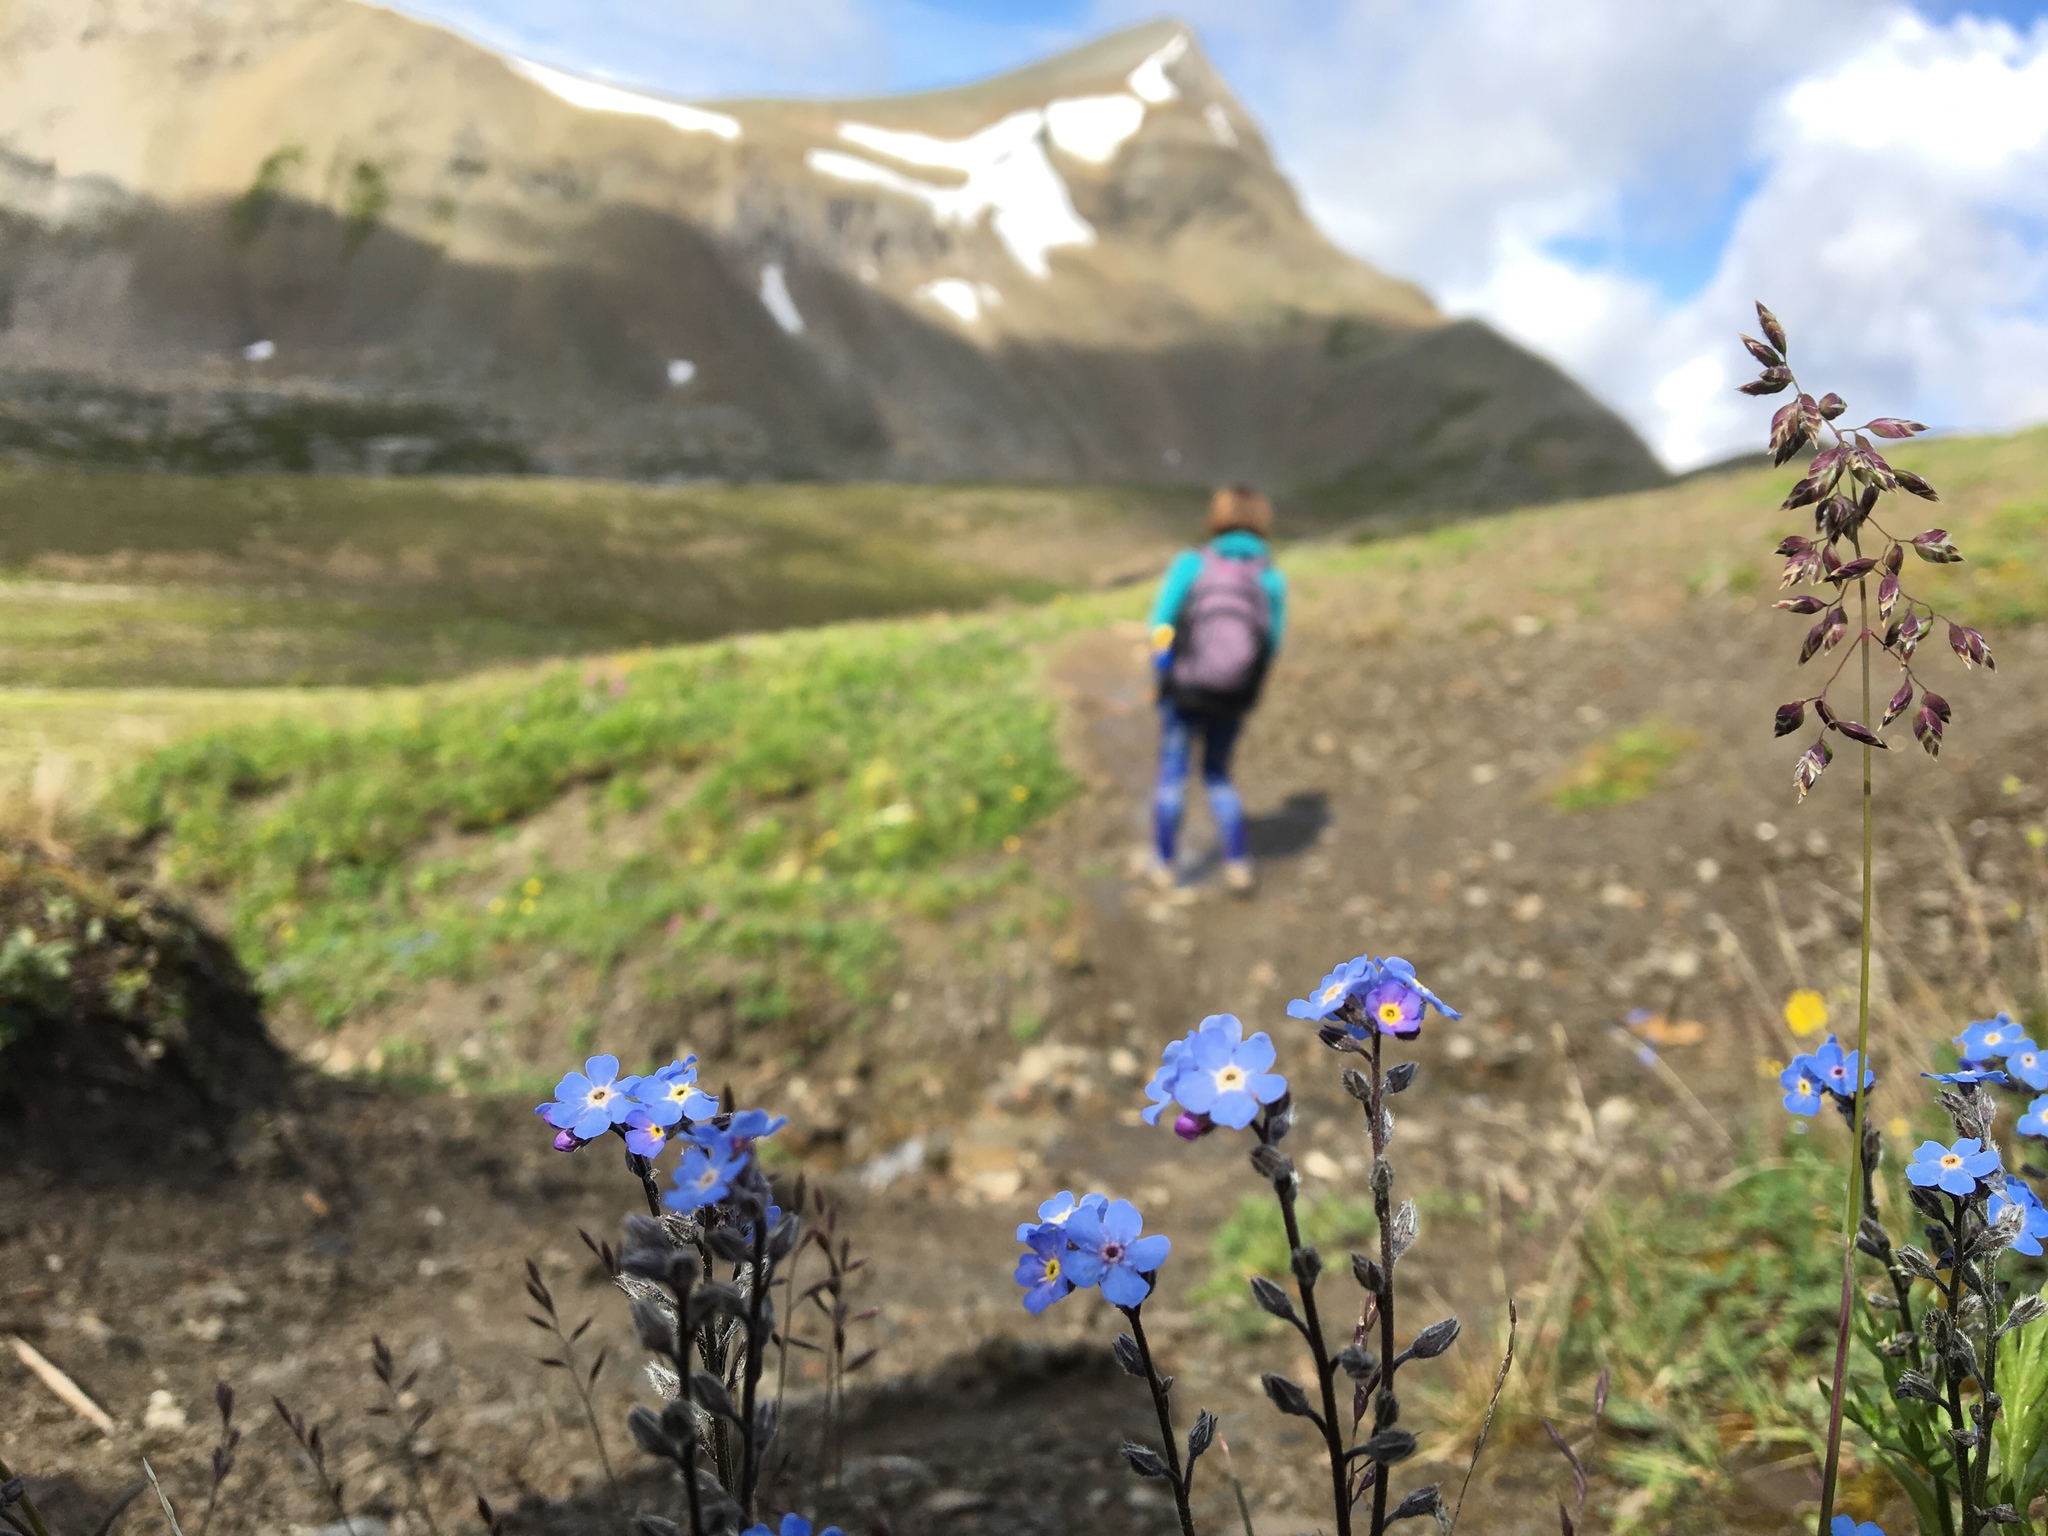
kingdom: Plantae
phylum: Tracheophyta
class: Magnoliopsida
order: Boraginales
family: Boraginaceae
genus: Myosotis
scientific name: Myosotis asiatica
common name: Asian forget-me-not
